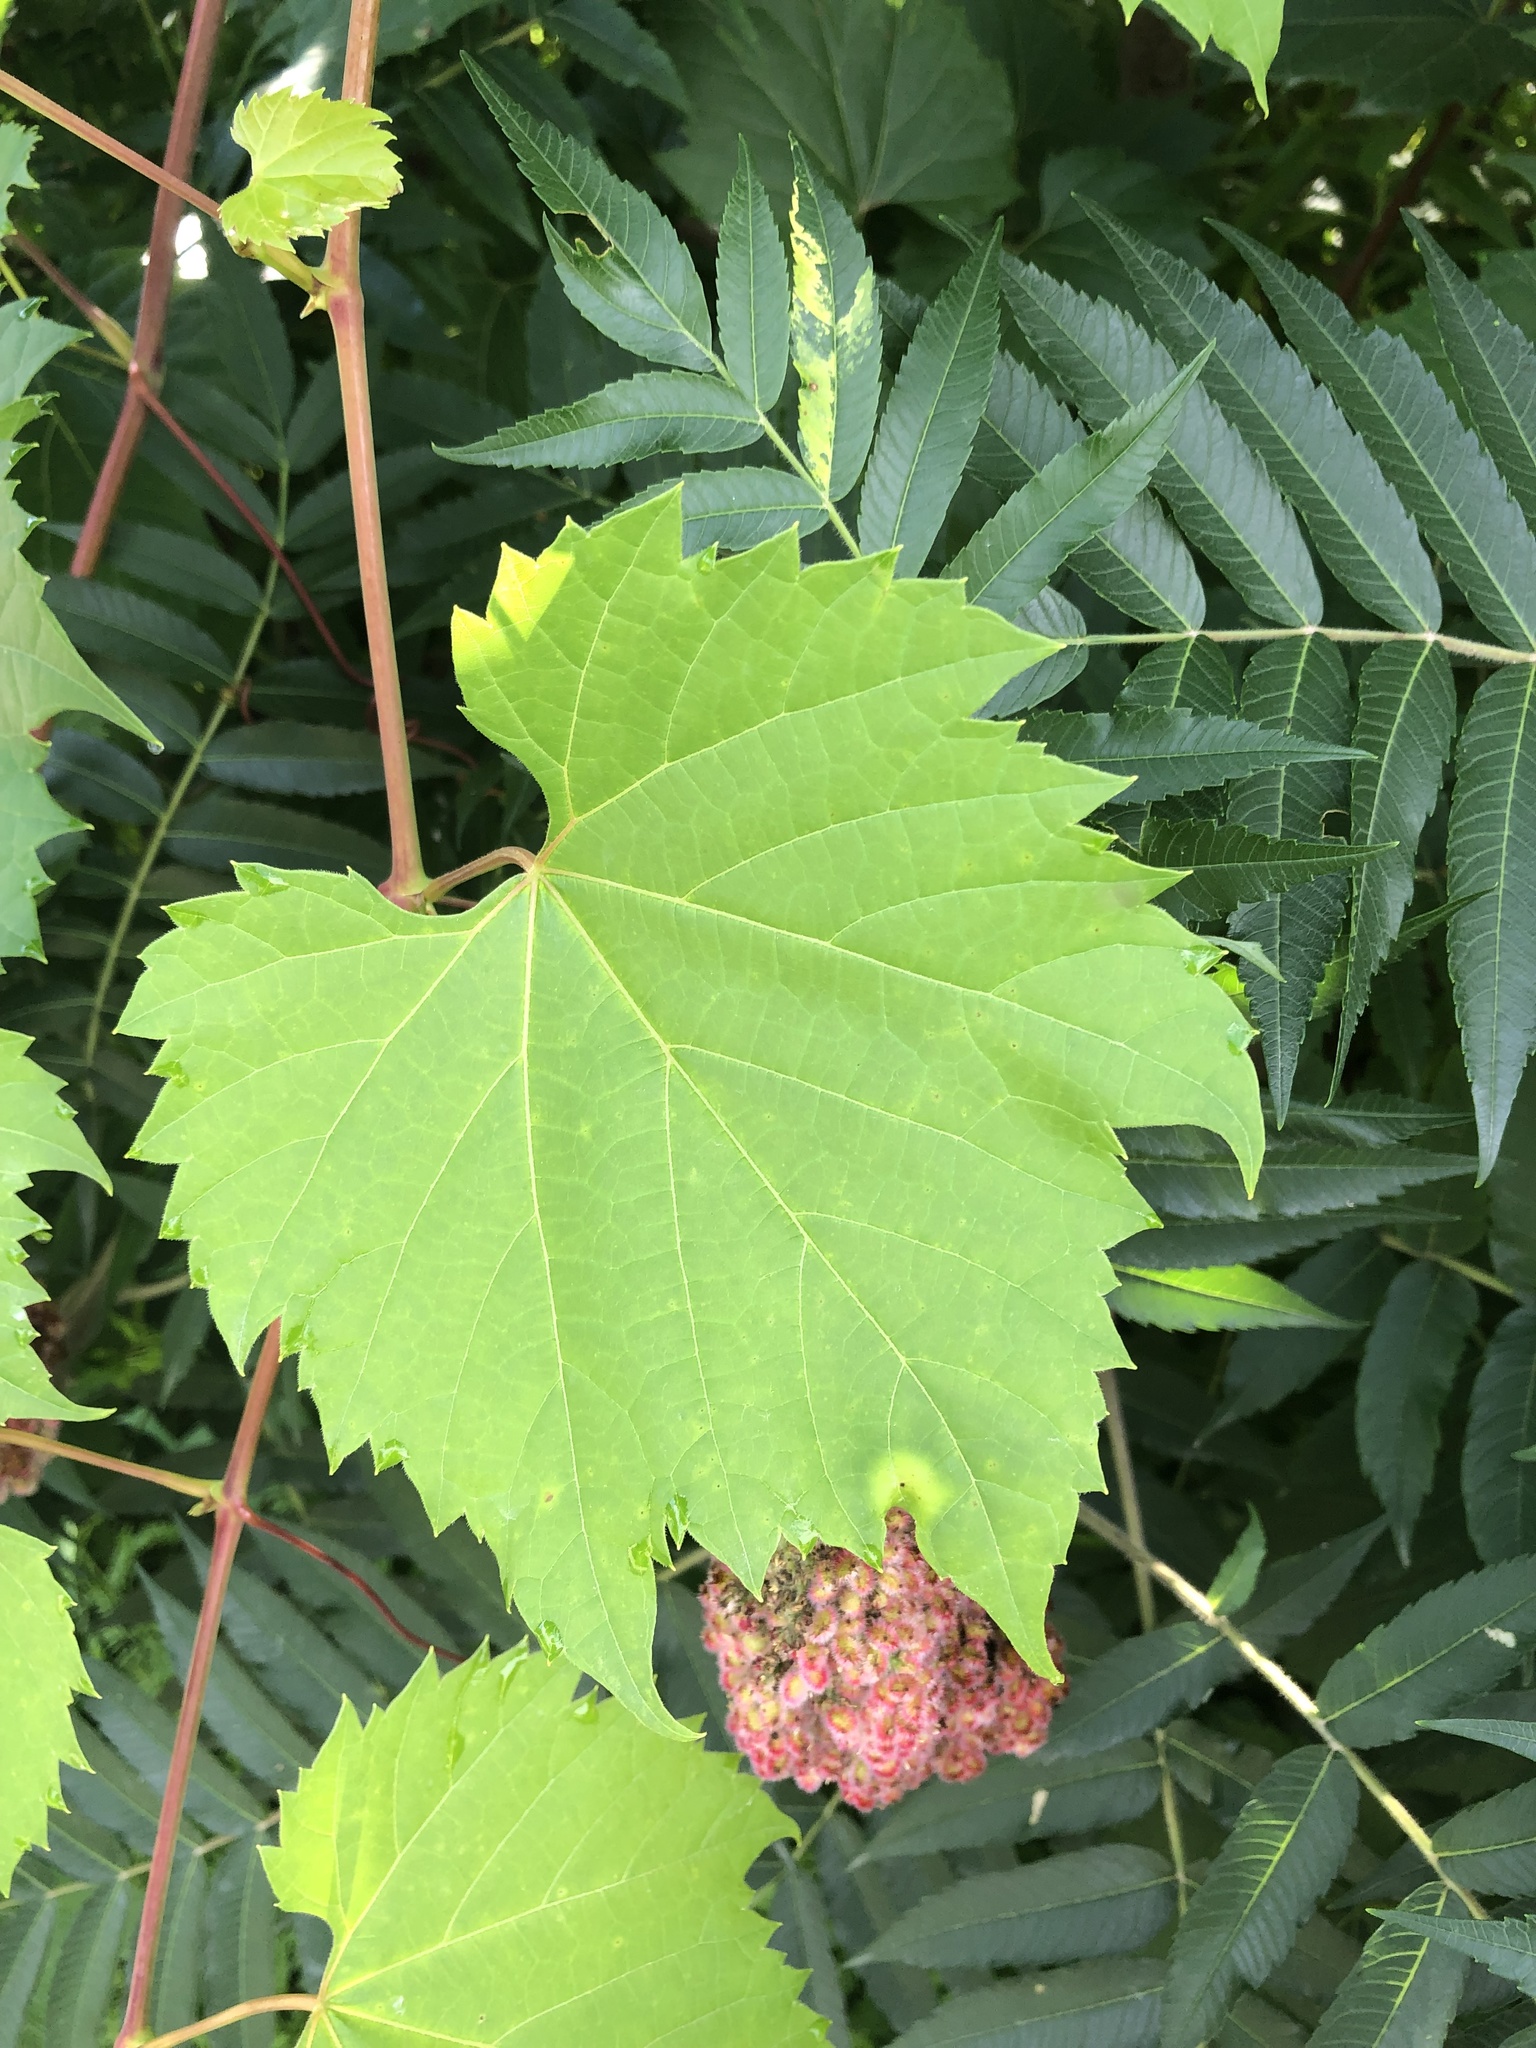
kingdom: Plantae
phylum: Tracheophyta
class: Magnoliopsida
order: Vitales
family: Vitaceae
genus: Vitis
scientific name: Vitis riparia
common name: Frost grape
